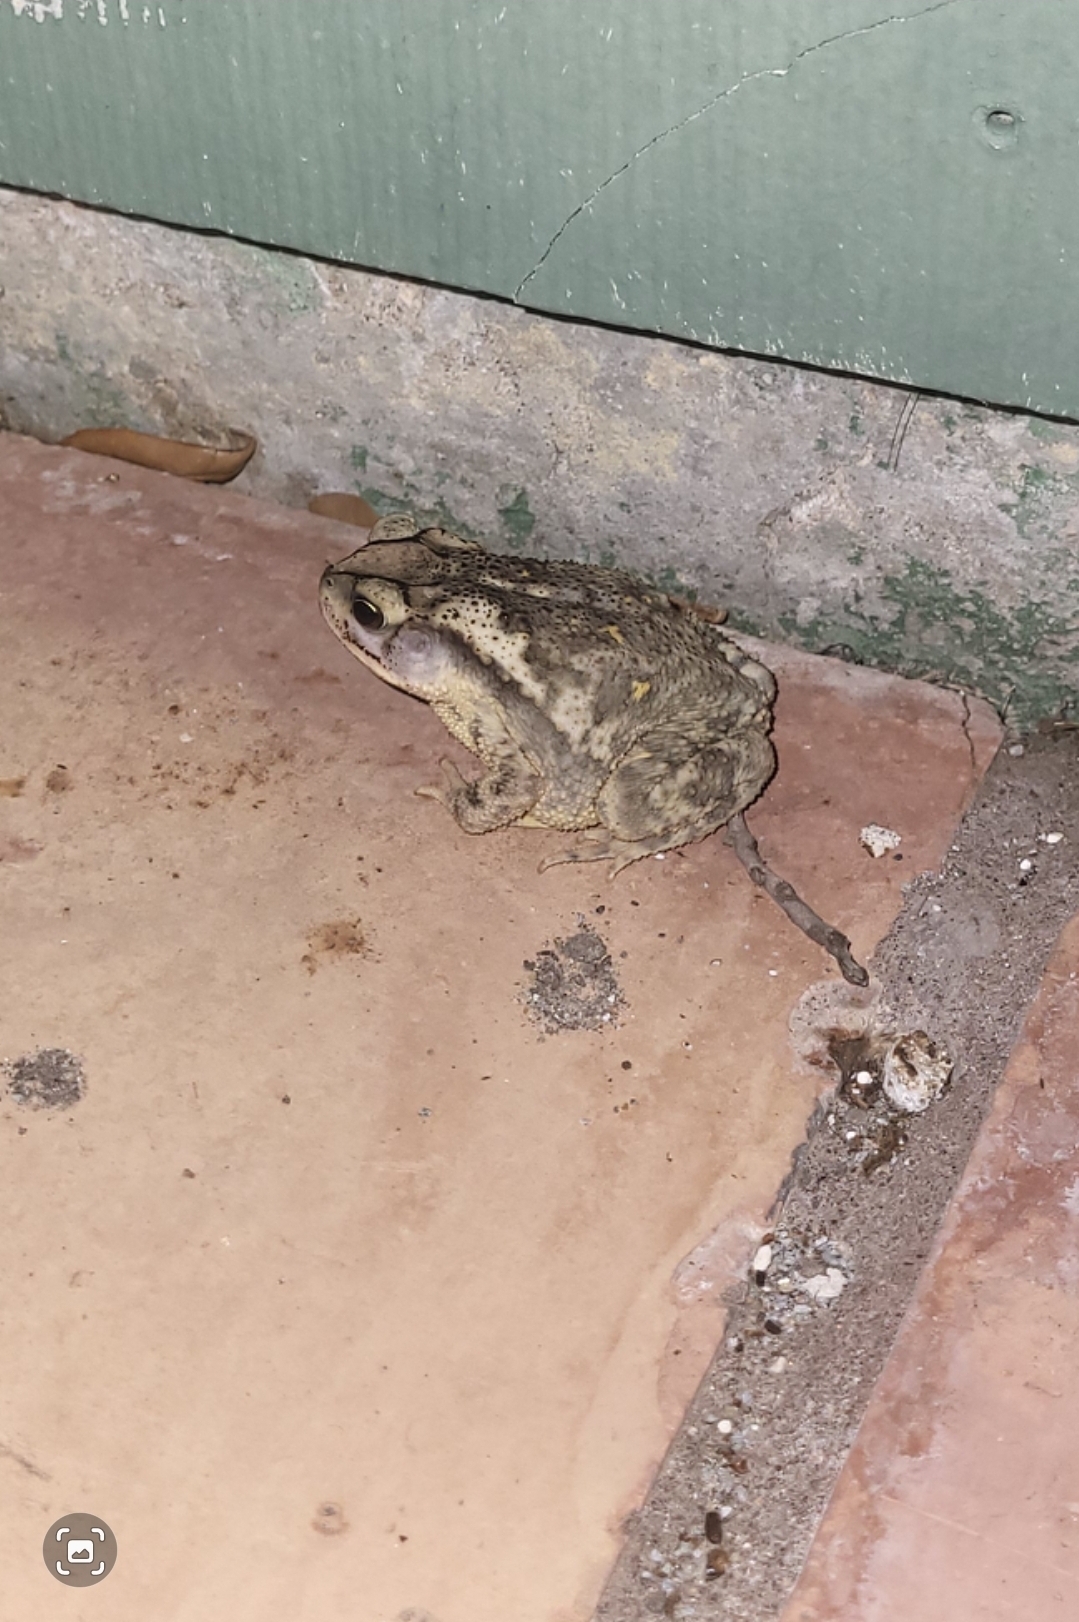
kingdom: Animalia
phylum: Chordata
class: Amphibia
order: Anura
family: Bufonidae
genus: Incilius
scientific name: Incilius nebulifer
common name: Gulf coast toad
